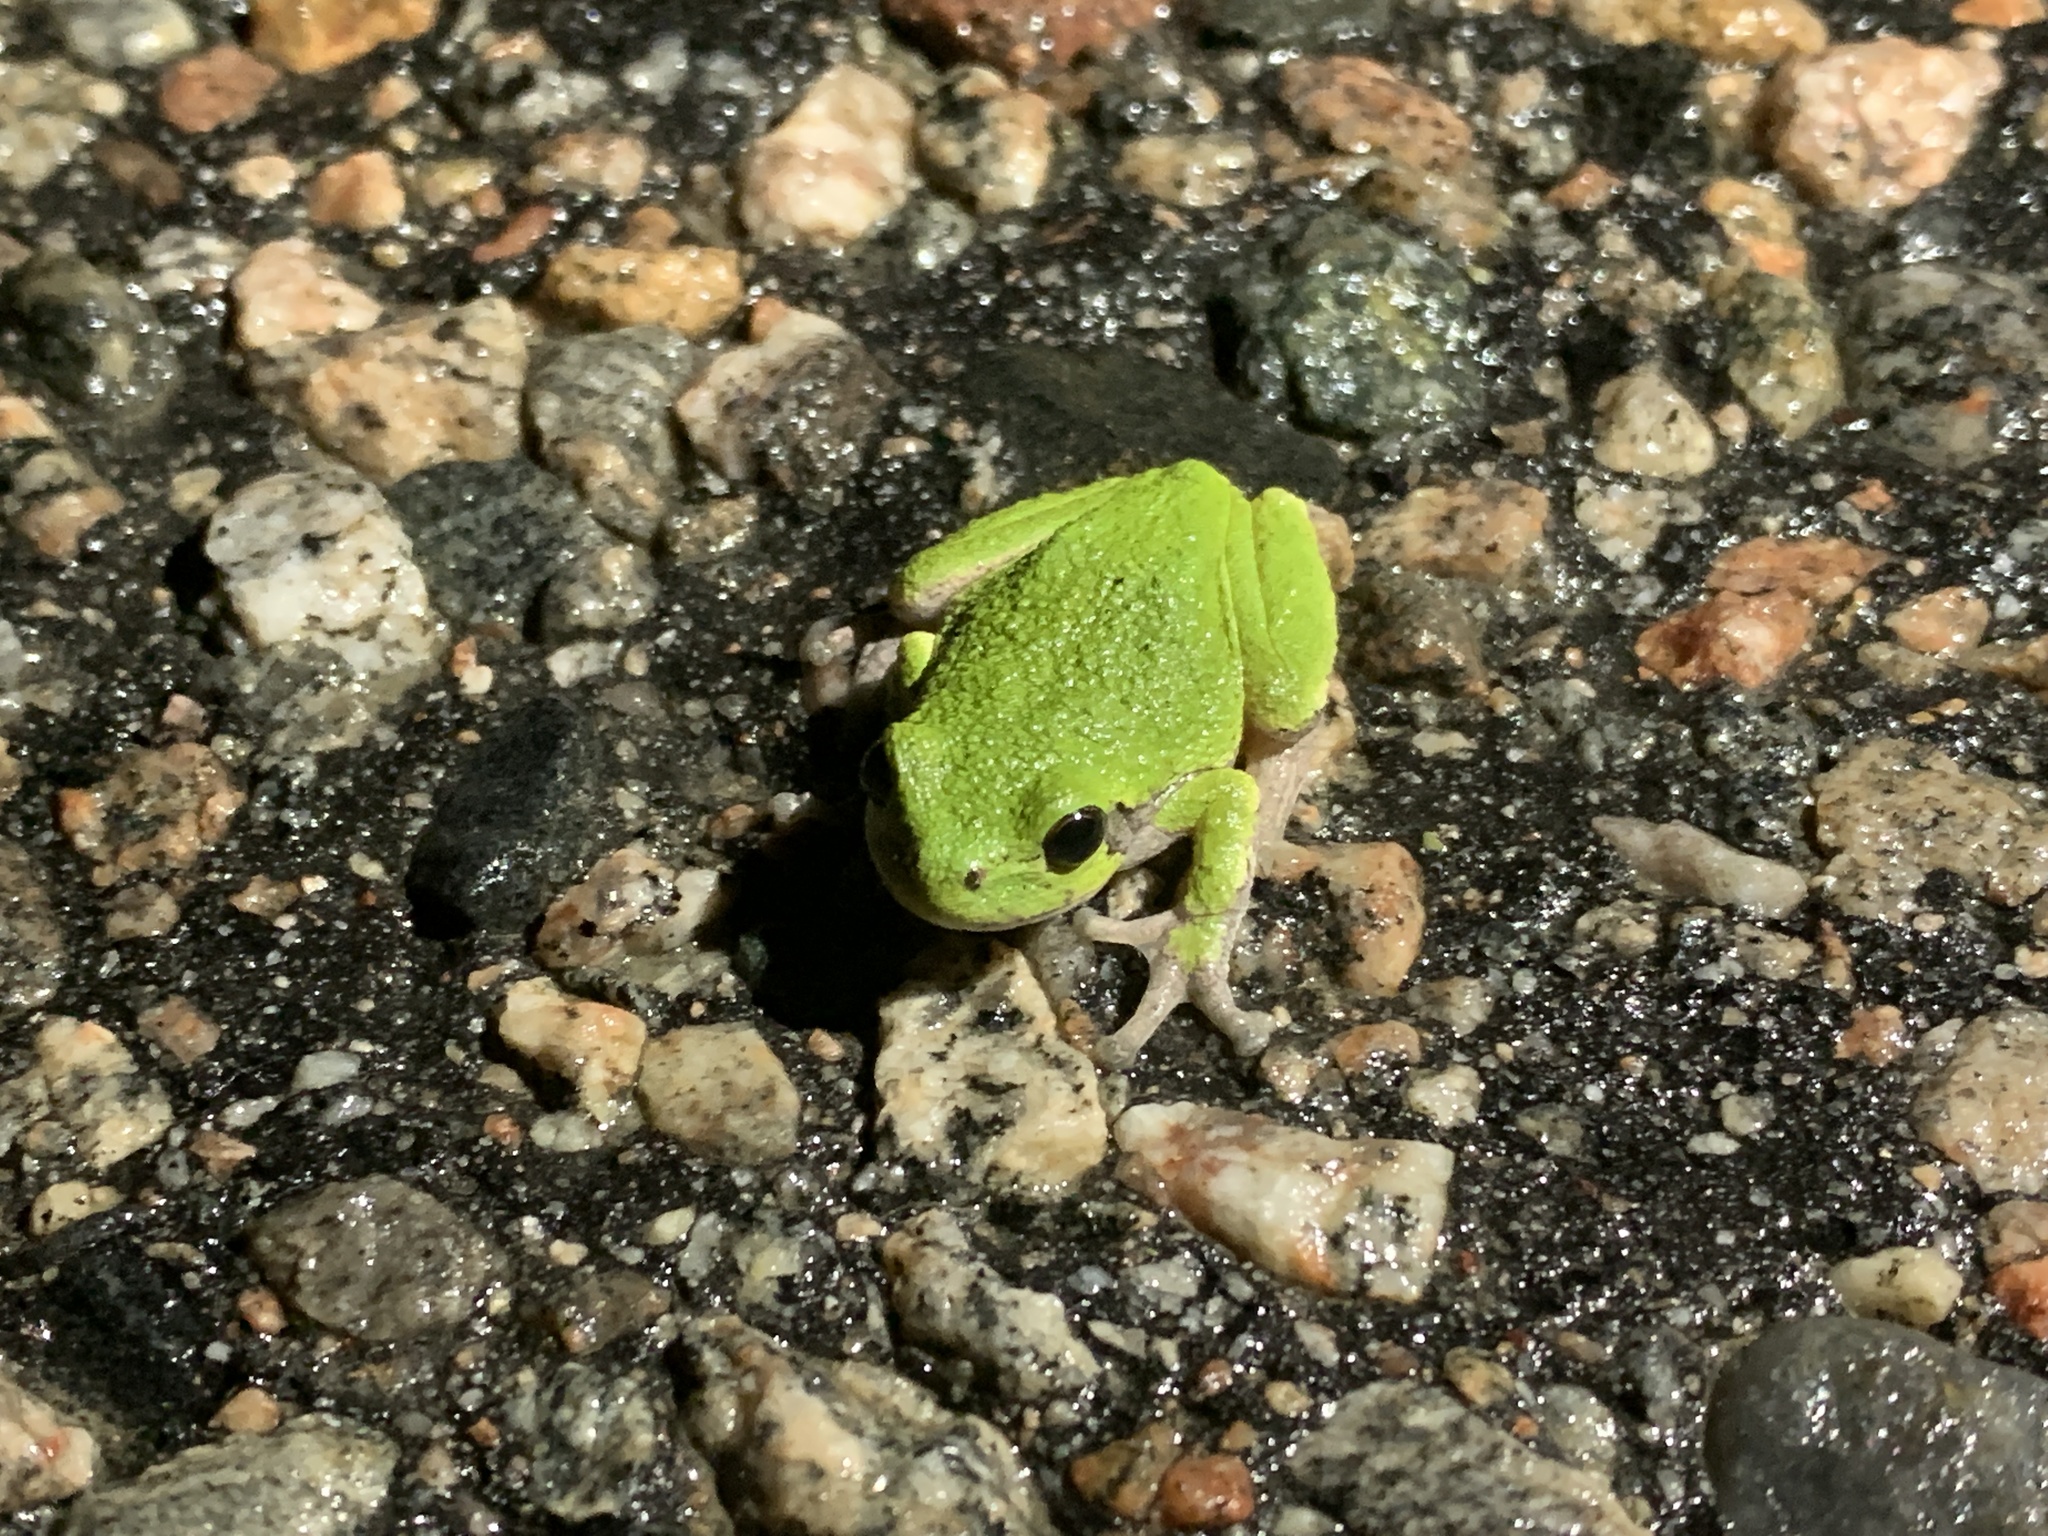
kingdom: Animalia
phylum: Chordata
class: Amphibia
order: Anura
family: Hylidae
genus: Dryophytes
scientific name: Dryophytes versicolor
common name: Gray treefrog
